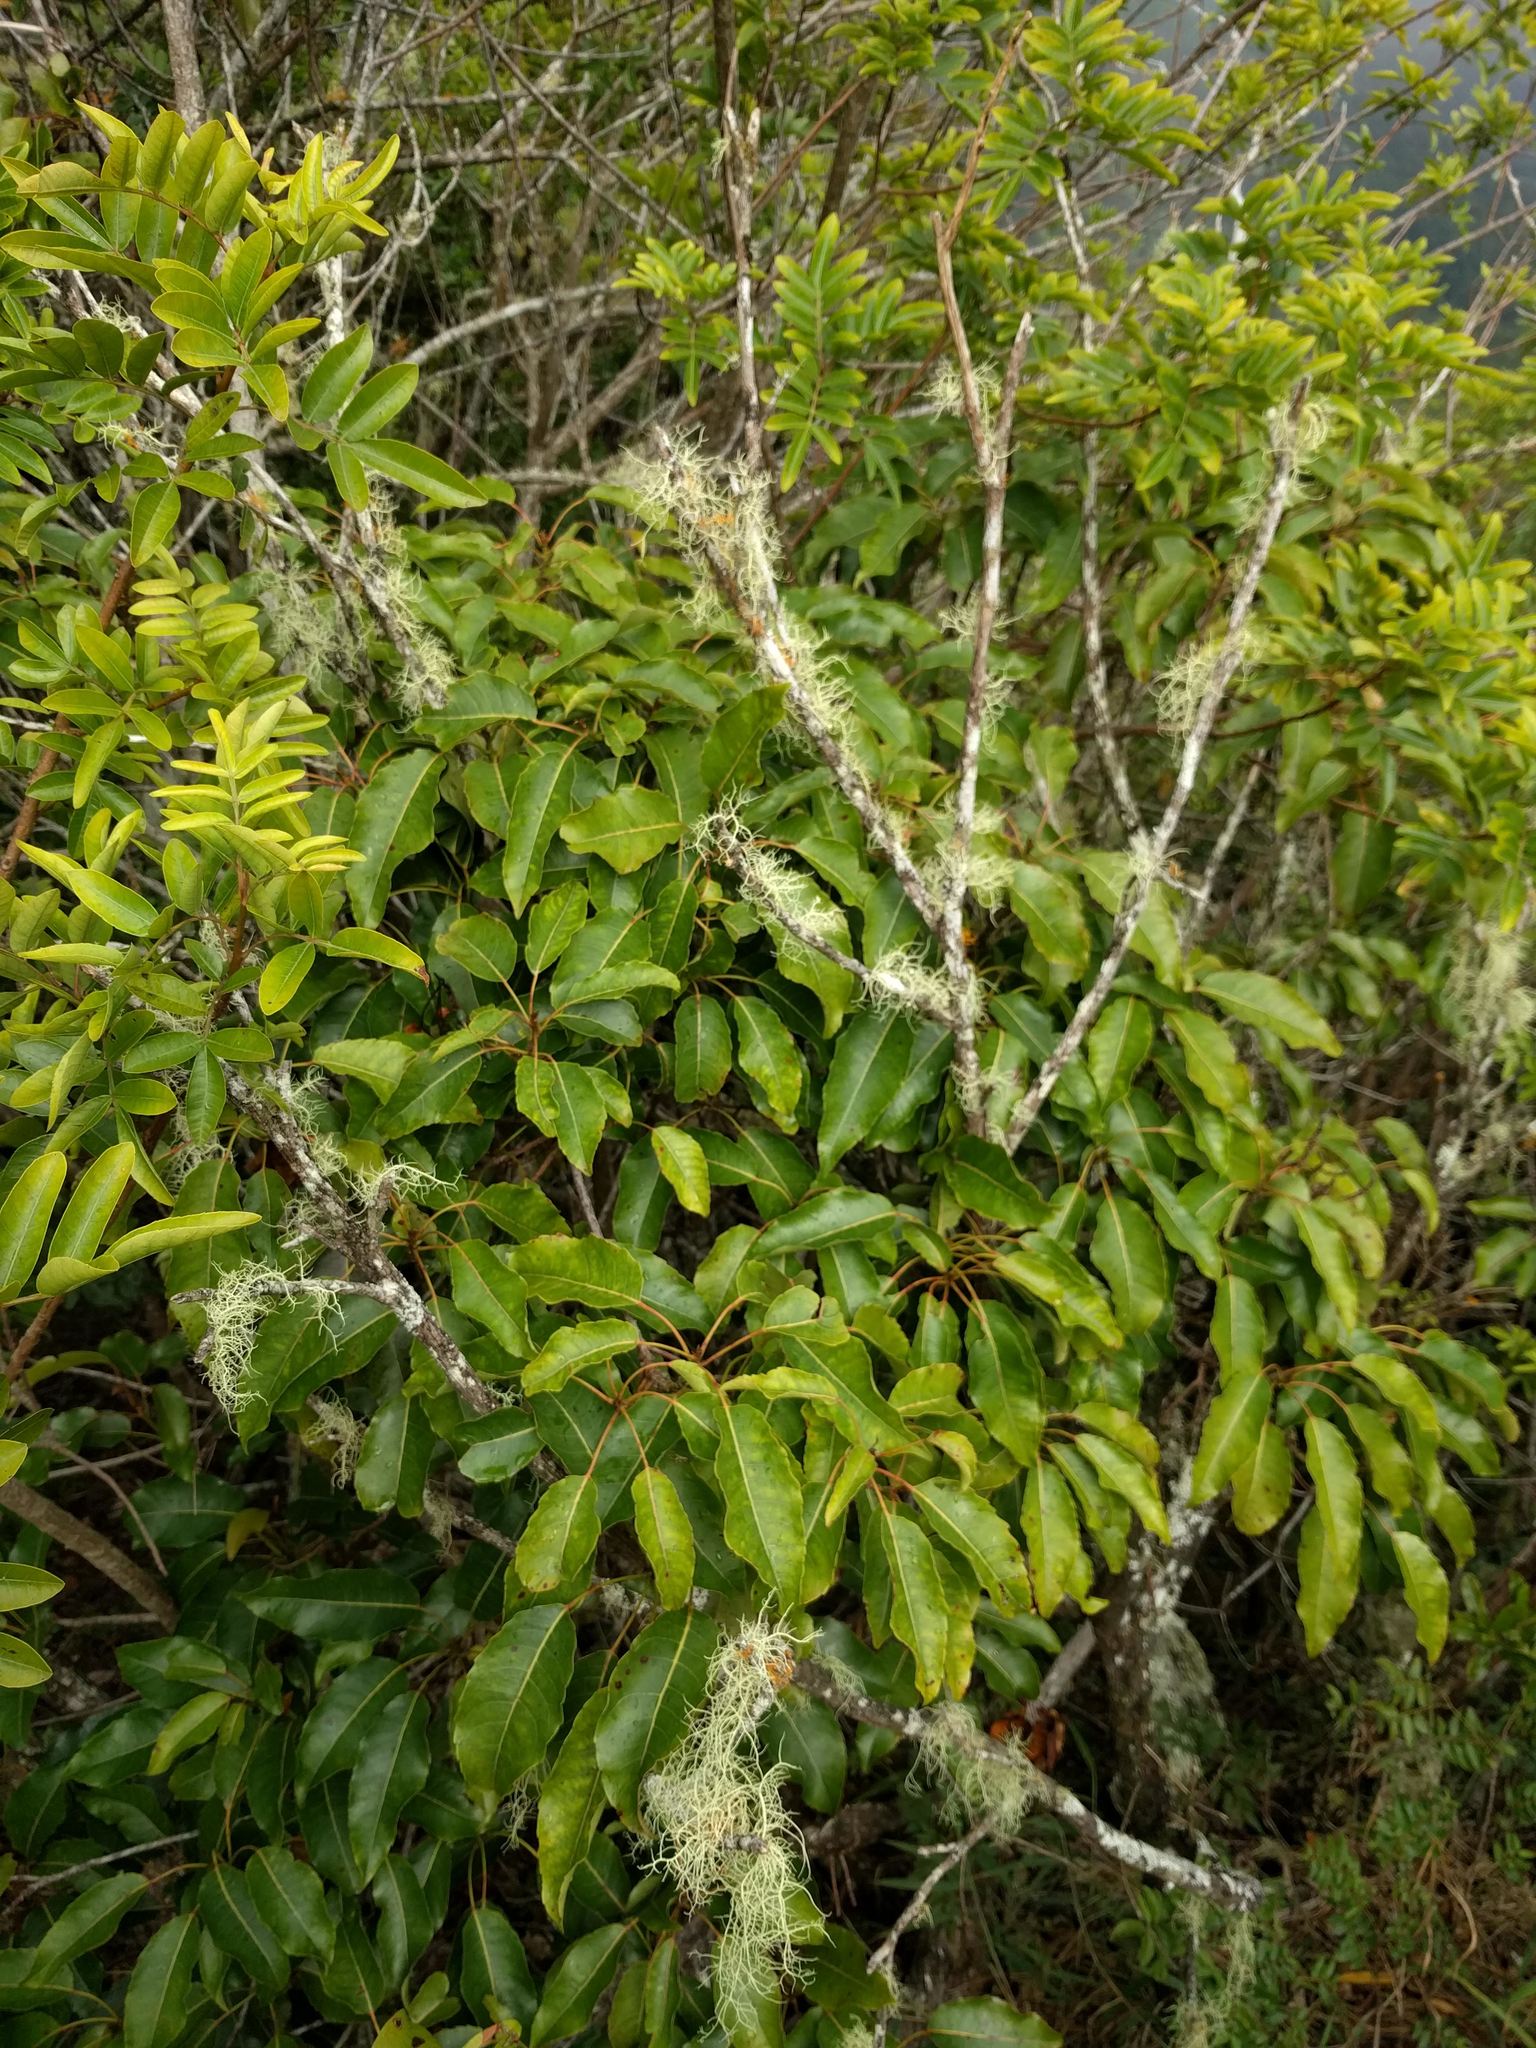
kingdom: Plantae
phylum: Tracheophyta
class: Magnoliopsida
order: Apiales
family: Araliaceae
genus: Cheirodendron
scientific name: Cheirodendron trigynum
